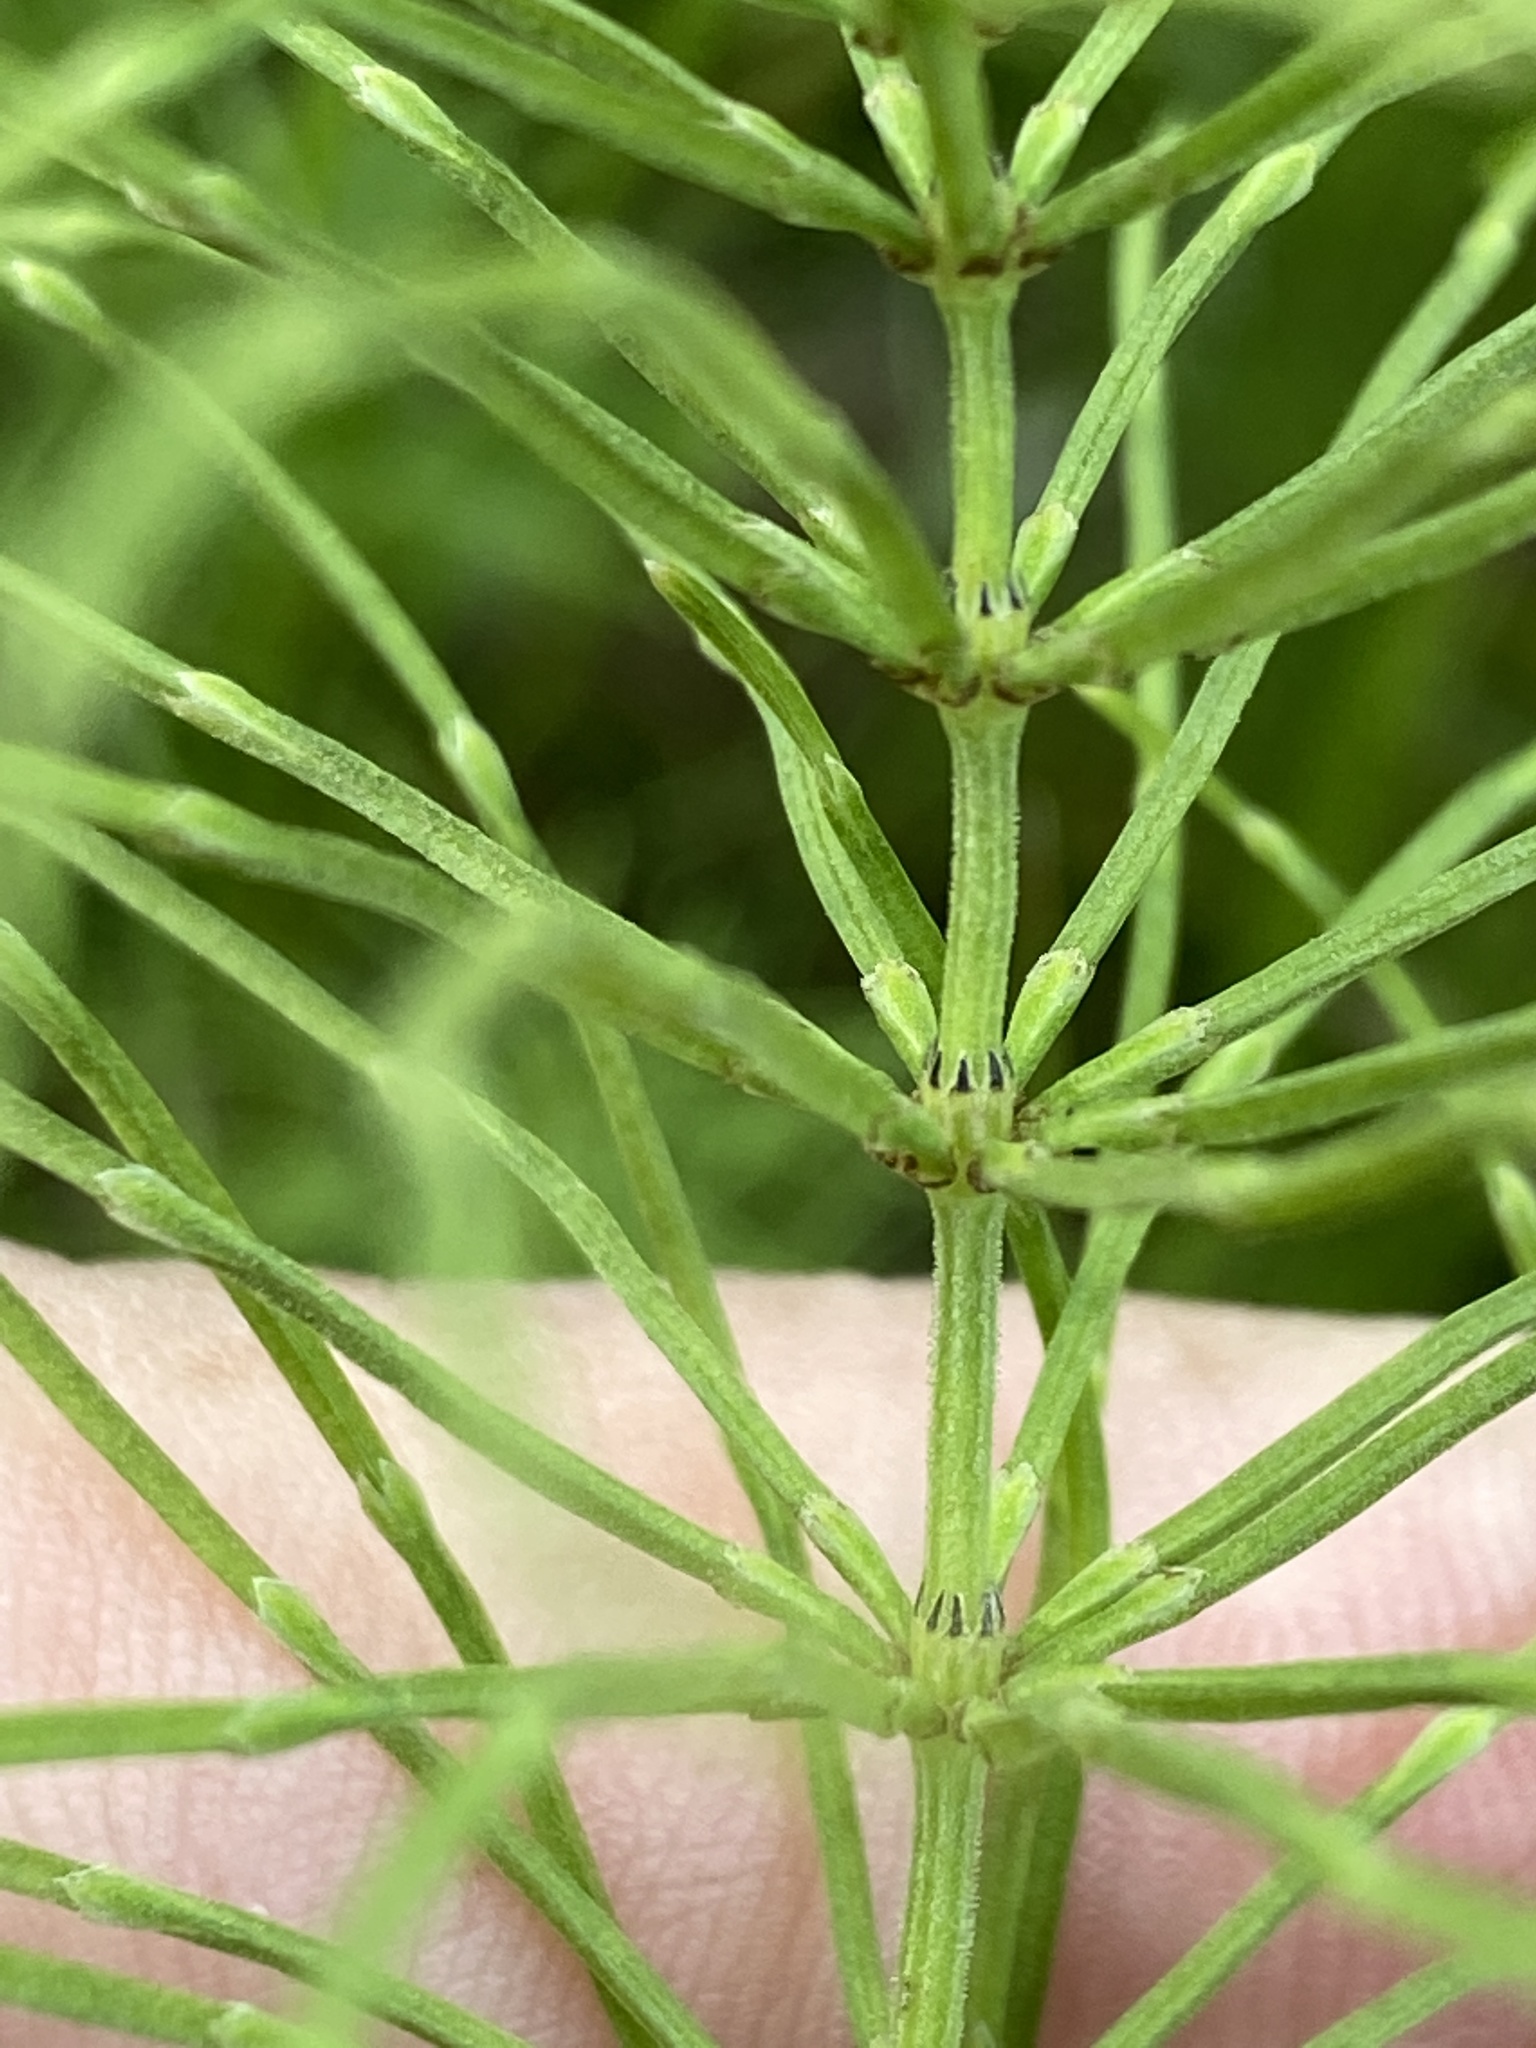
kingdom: Plantae
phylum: Tracheophyta
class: Polypodiopsida
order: Equisetales
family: Equisetaceae
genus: Equisetum
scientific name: Equisetum arvense
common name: Field horsetail
